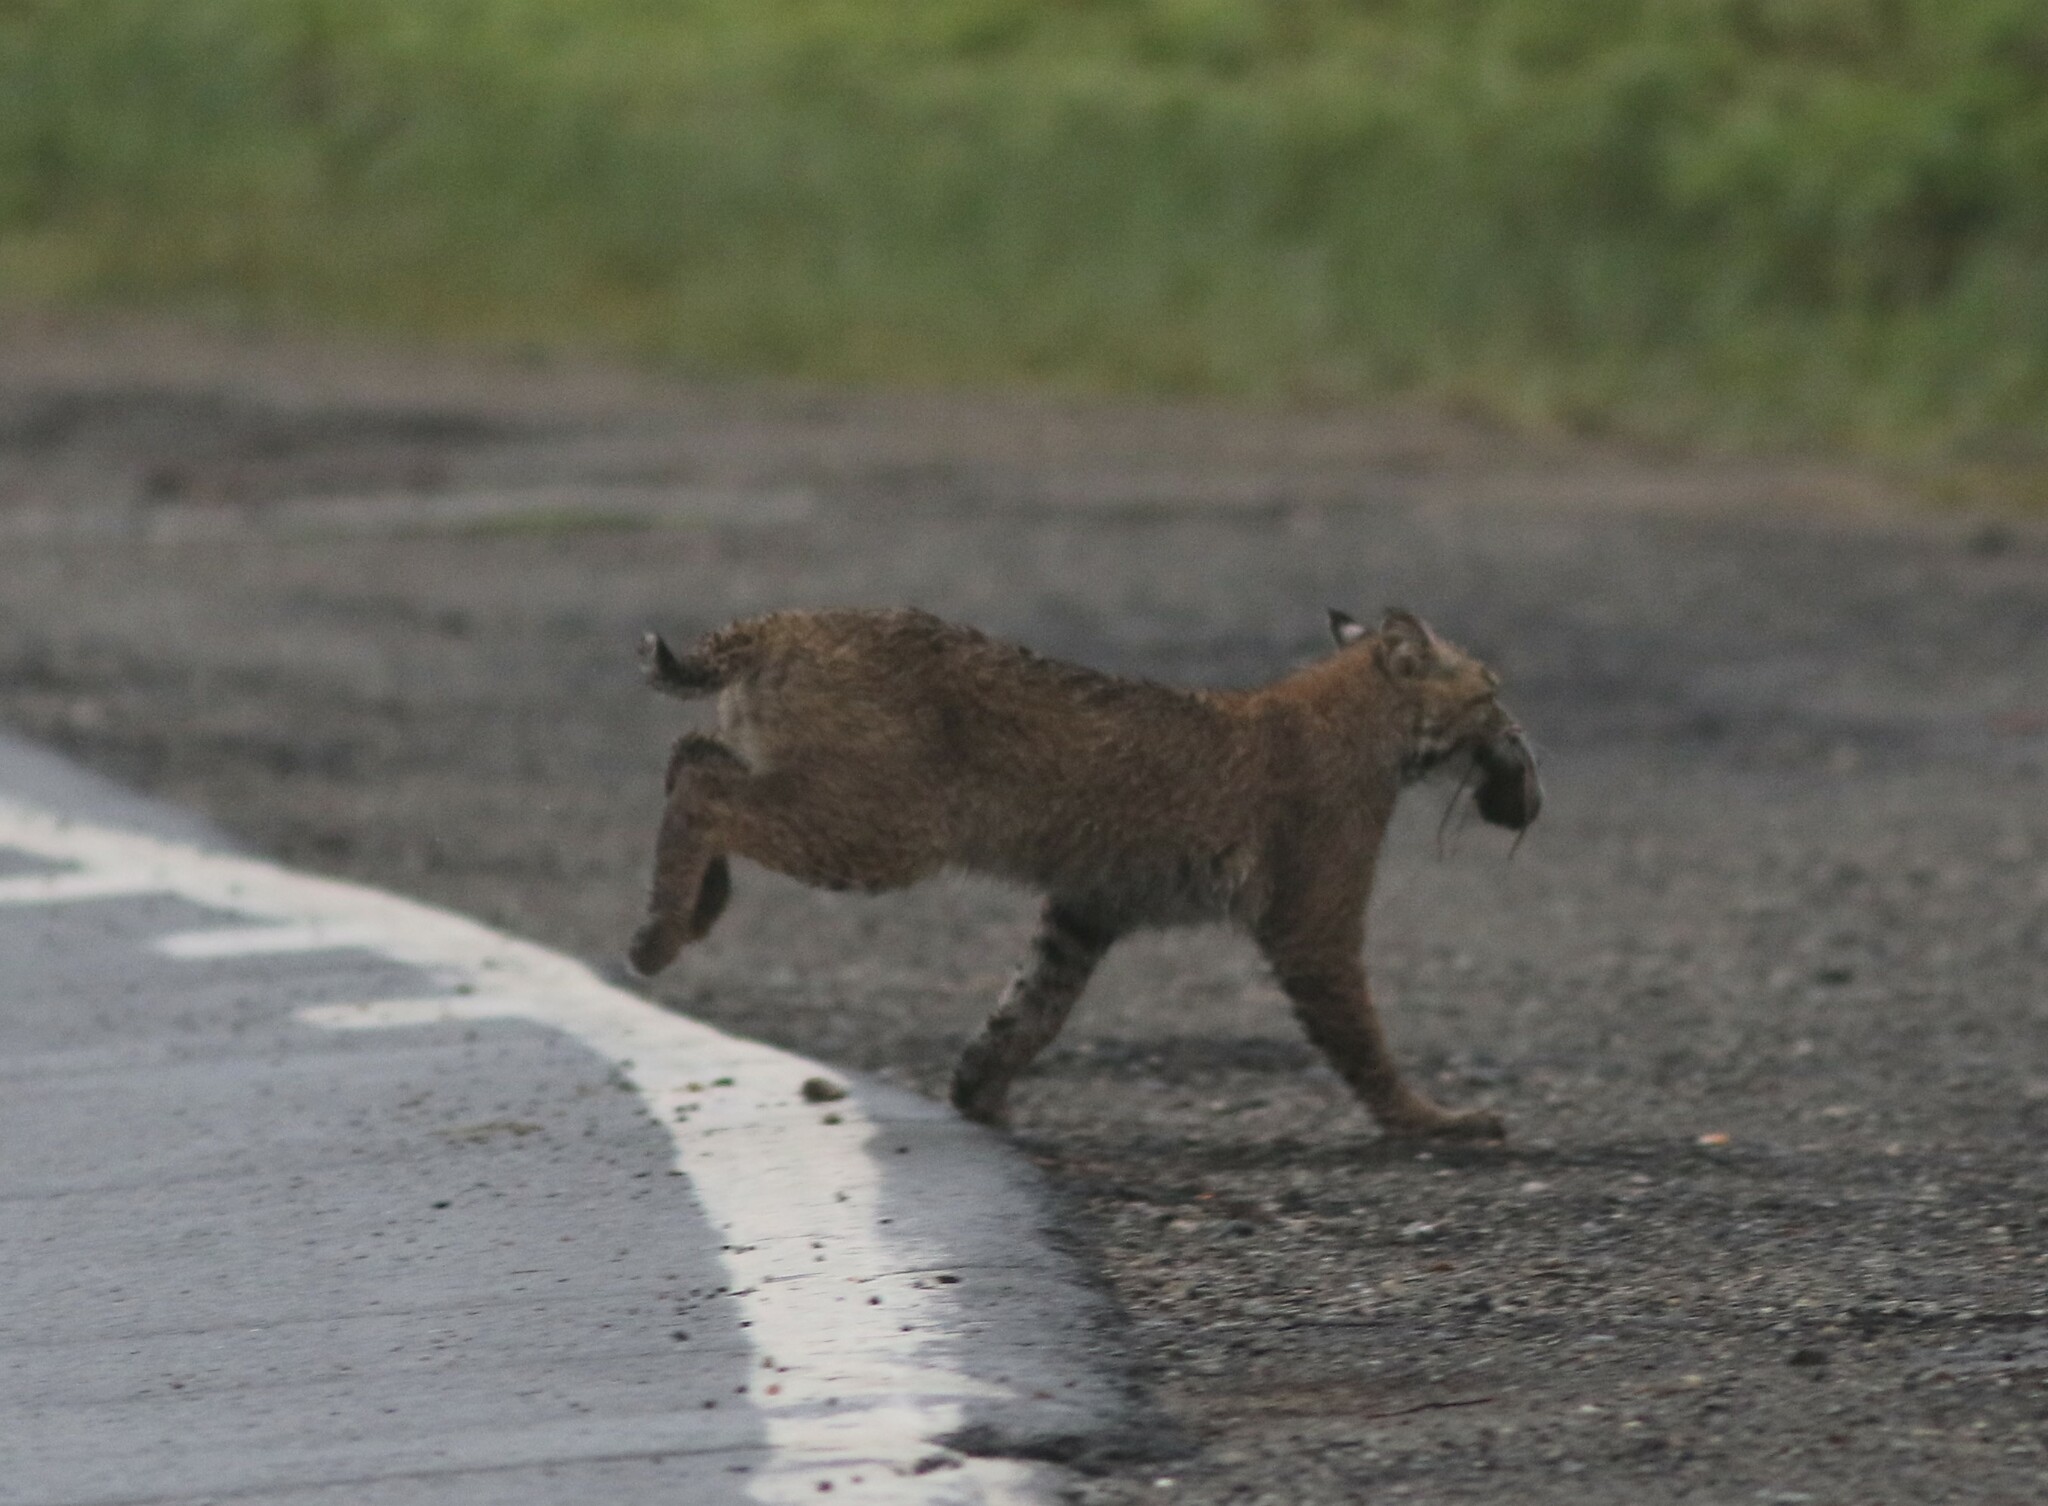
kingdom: Animalia
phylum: Chordata
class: Mammalia
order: Carnivora
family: Felidae
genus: Lynx
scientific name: Lynx rufus
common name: Bobcat
